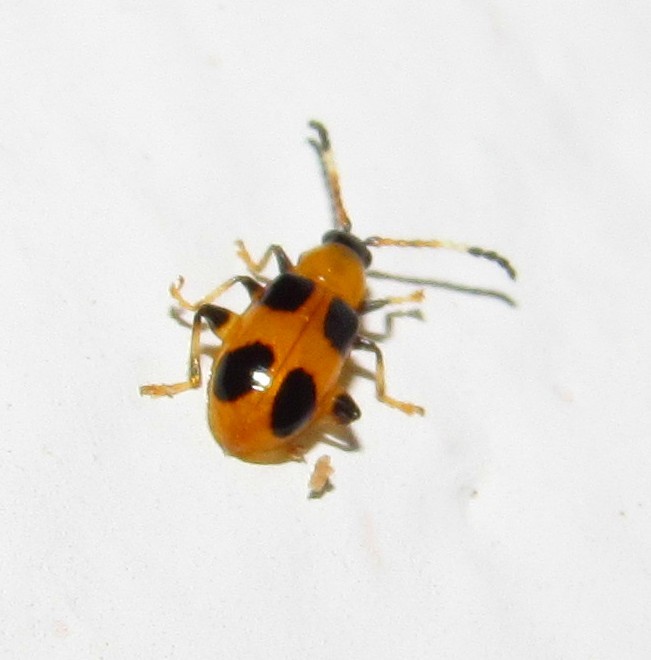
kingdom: Animalia
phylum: Arthropoda
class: Insecta
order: Coleoptera
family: Chrysomelidae
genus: Cornulactica
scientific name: Cornulactica
